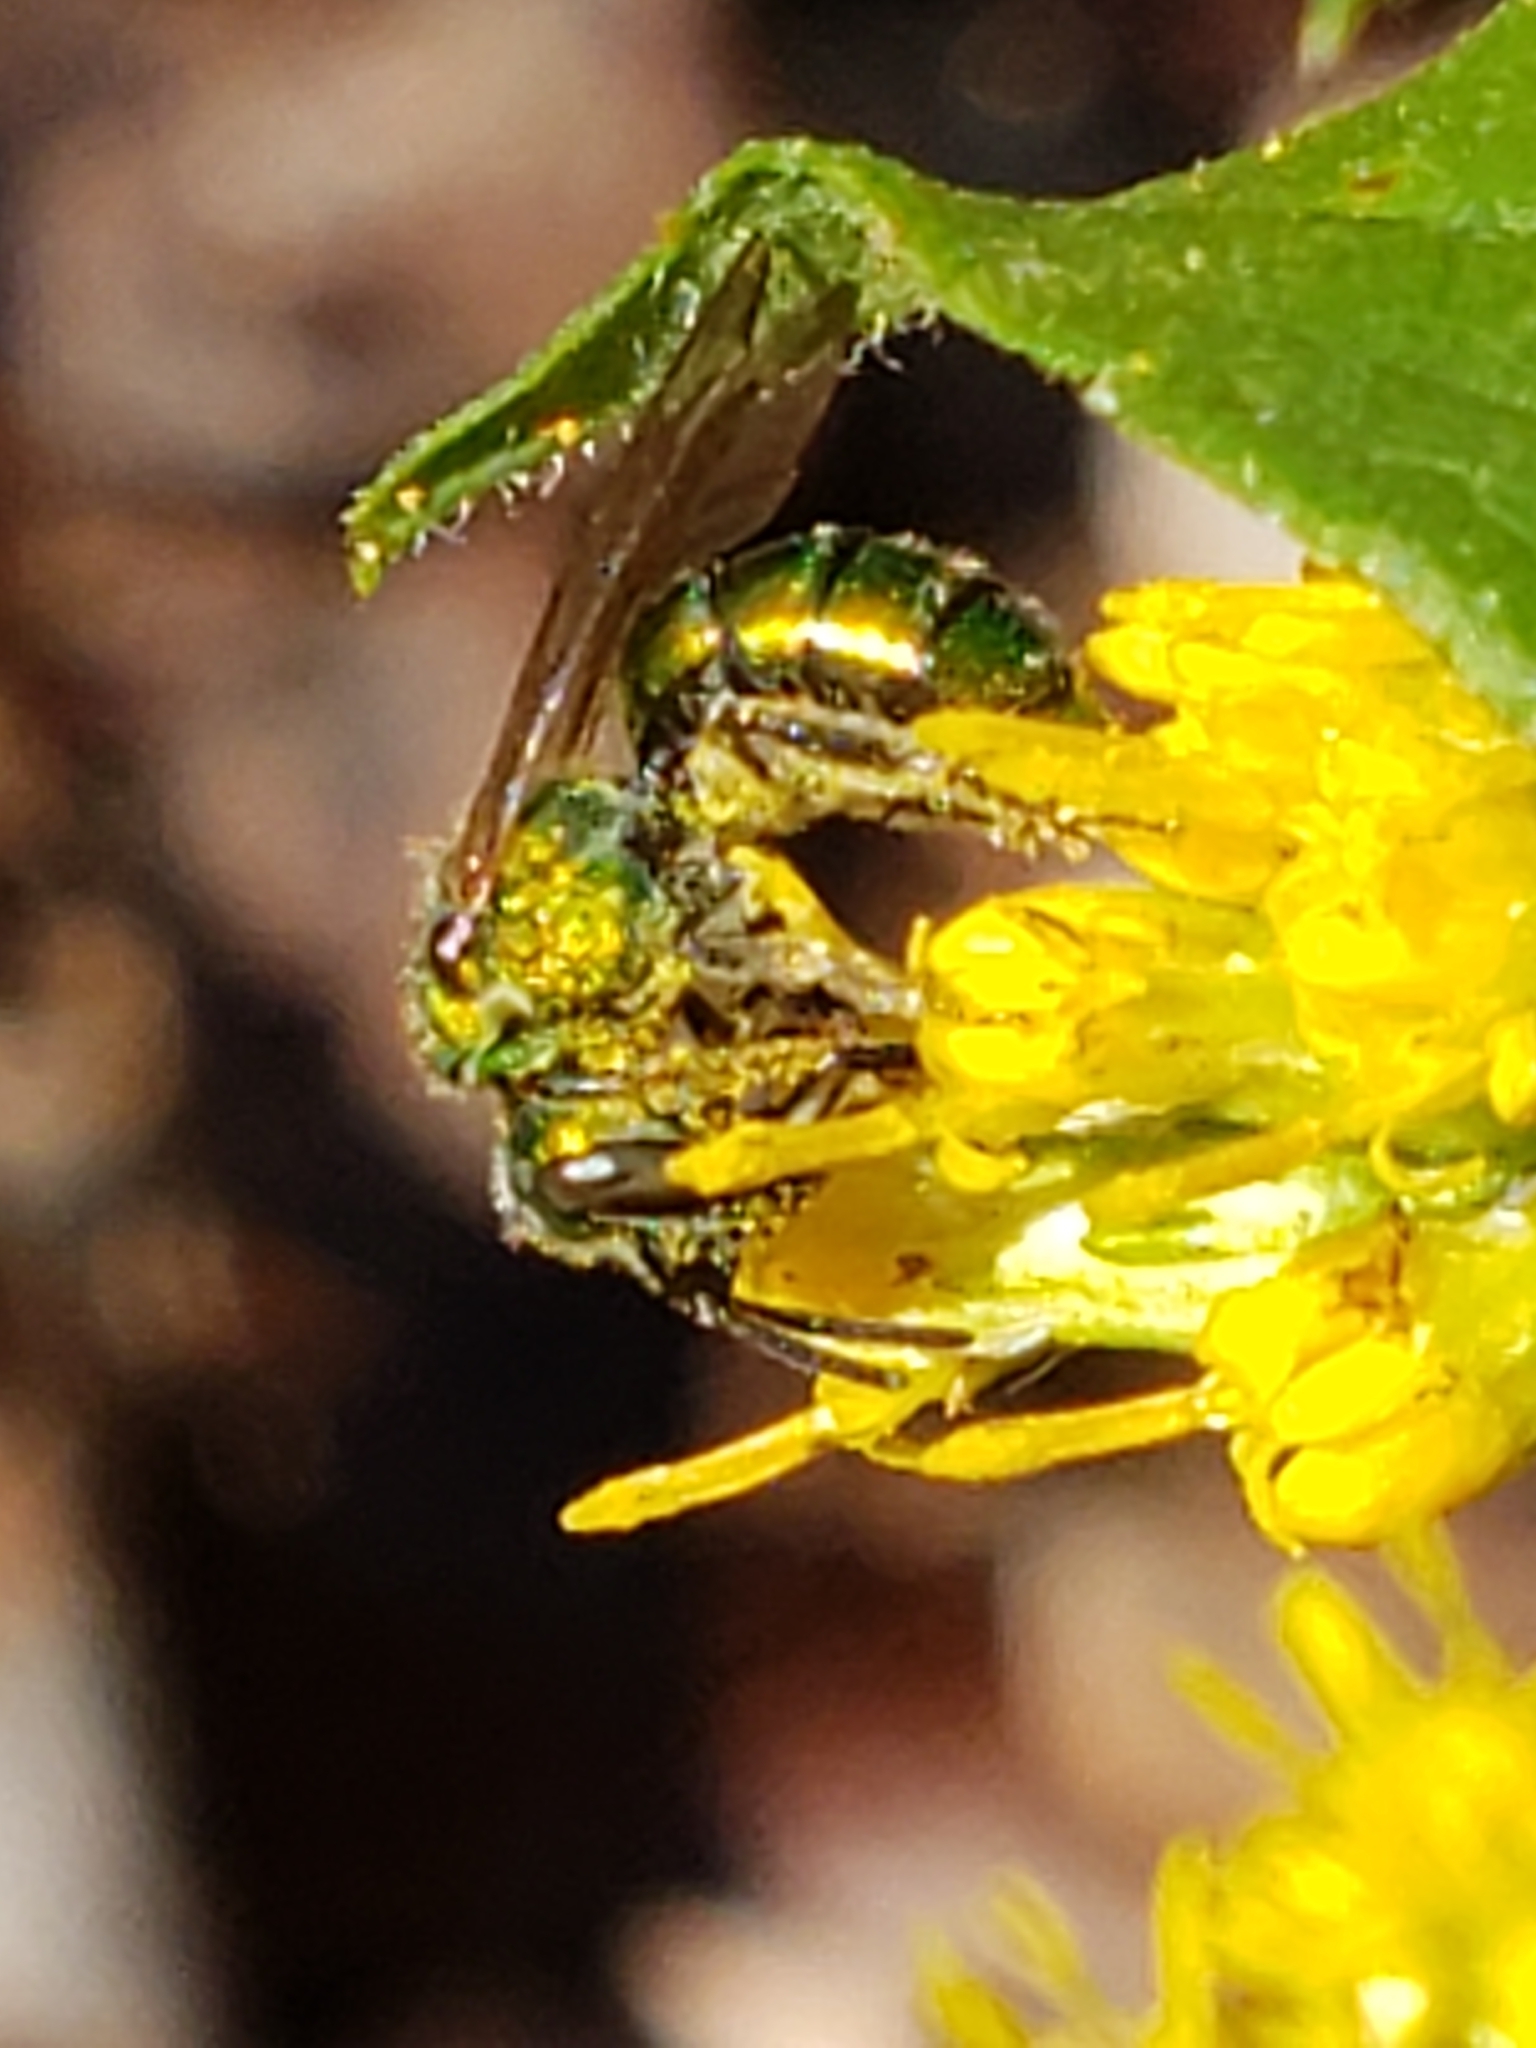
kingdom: Animalia
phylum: Arthropoda
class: Insecta
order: Hymenoptera
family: Halictidae
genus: Augochlora
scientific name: Augochlora pura
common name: Pure green sweat bee
